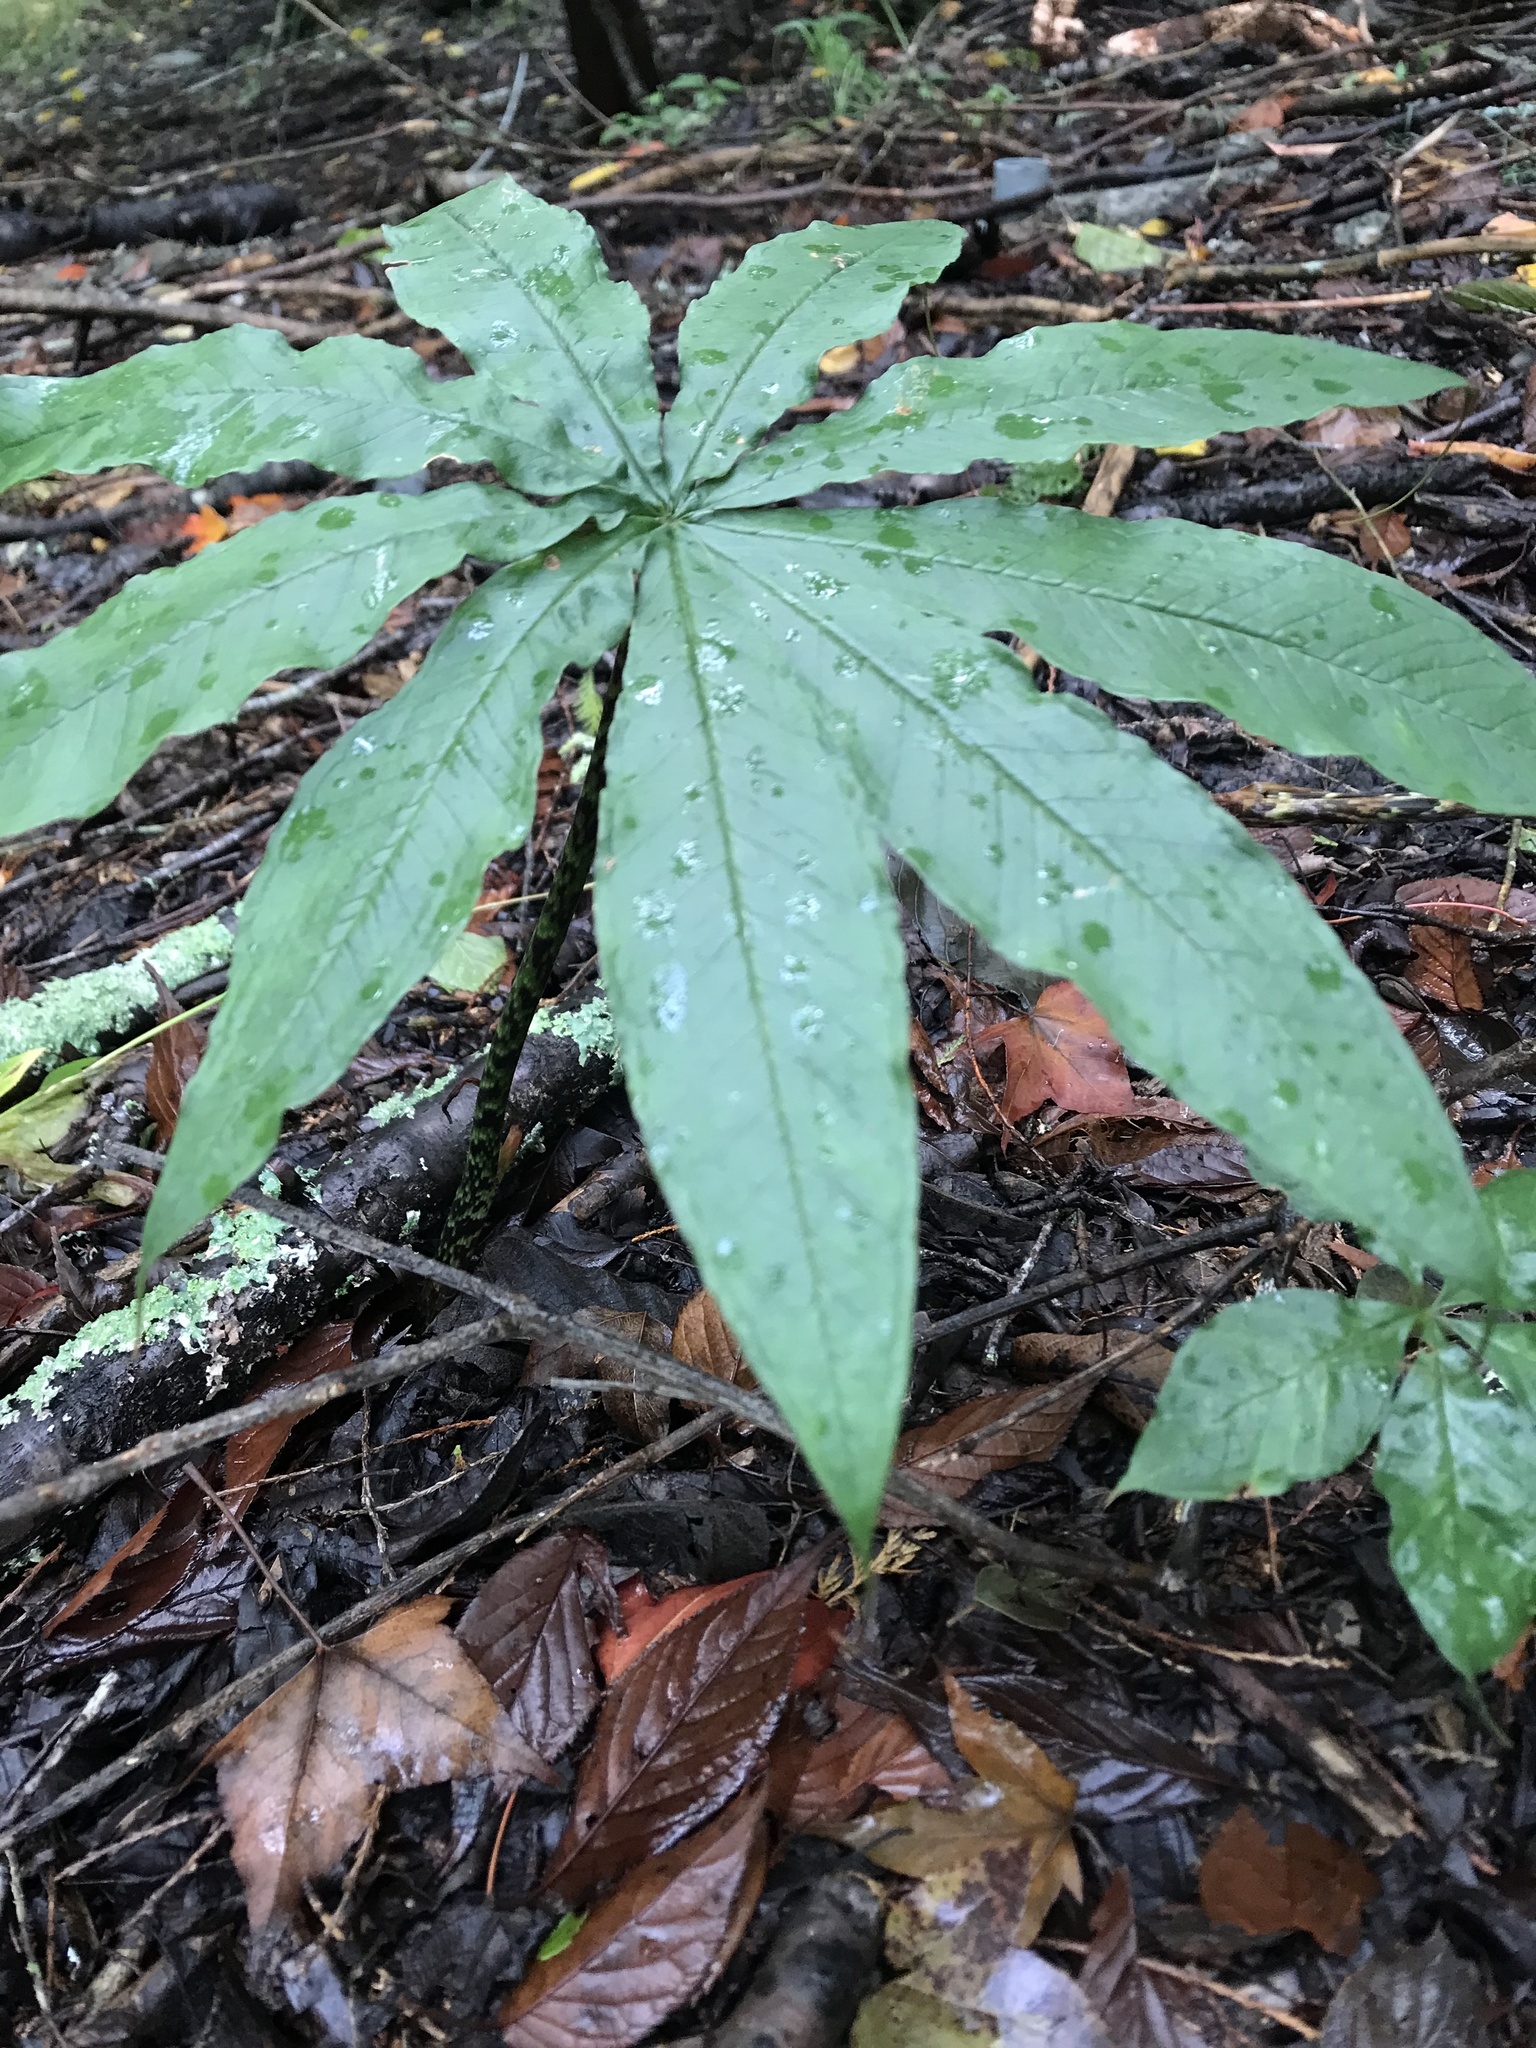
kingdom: Plantae
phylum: Tracheophyta
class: Liliopsida
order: Alismatales
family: Araceae
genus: Arisaema
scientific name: Arisaema taiwanense
